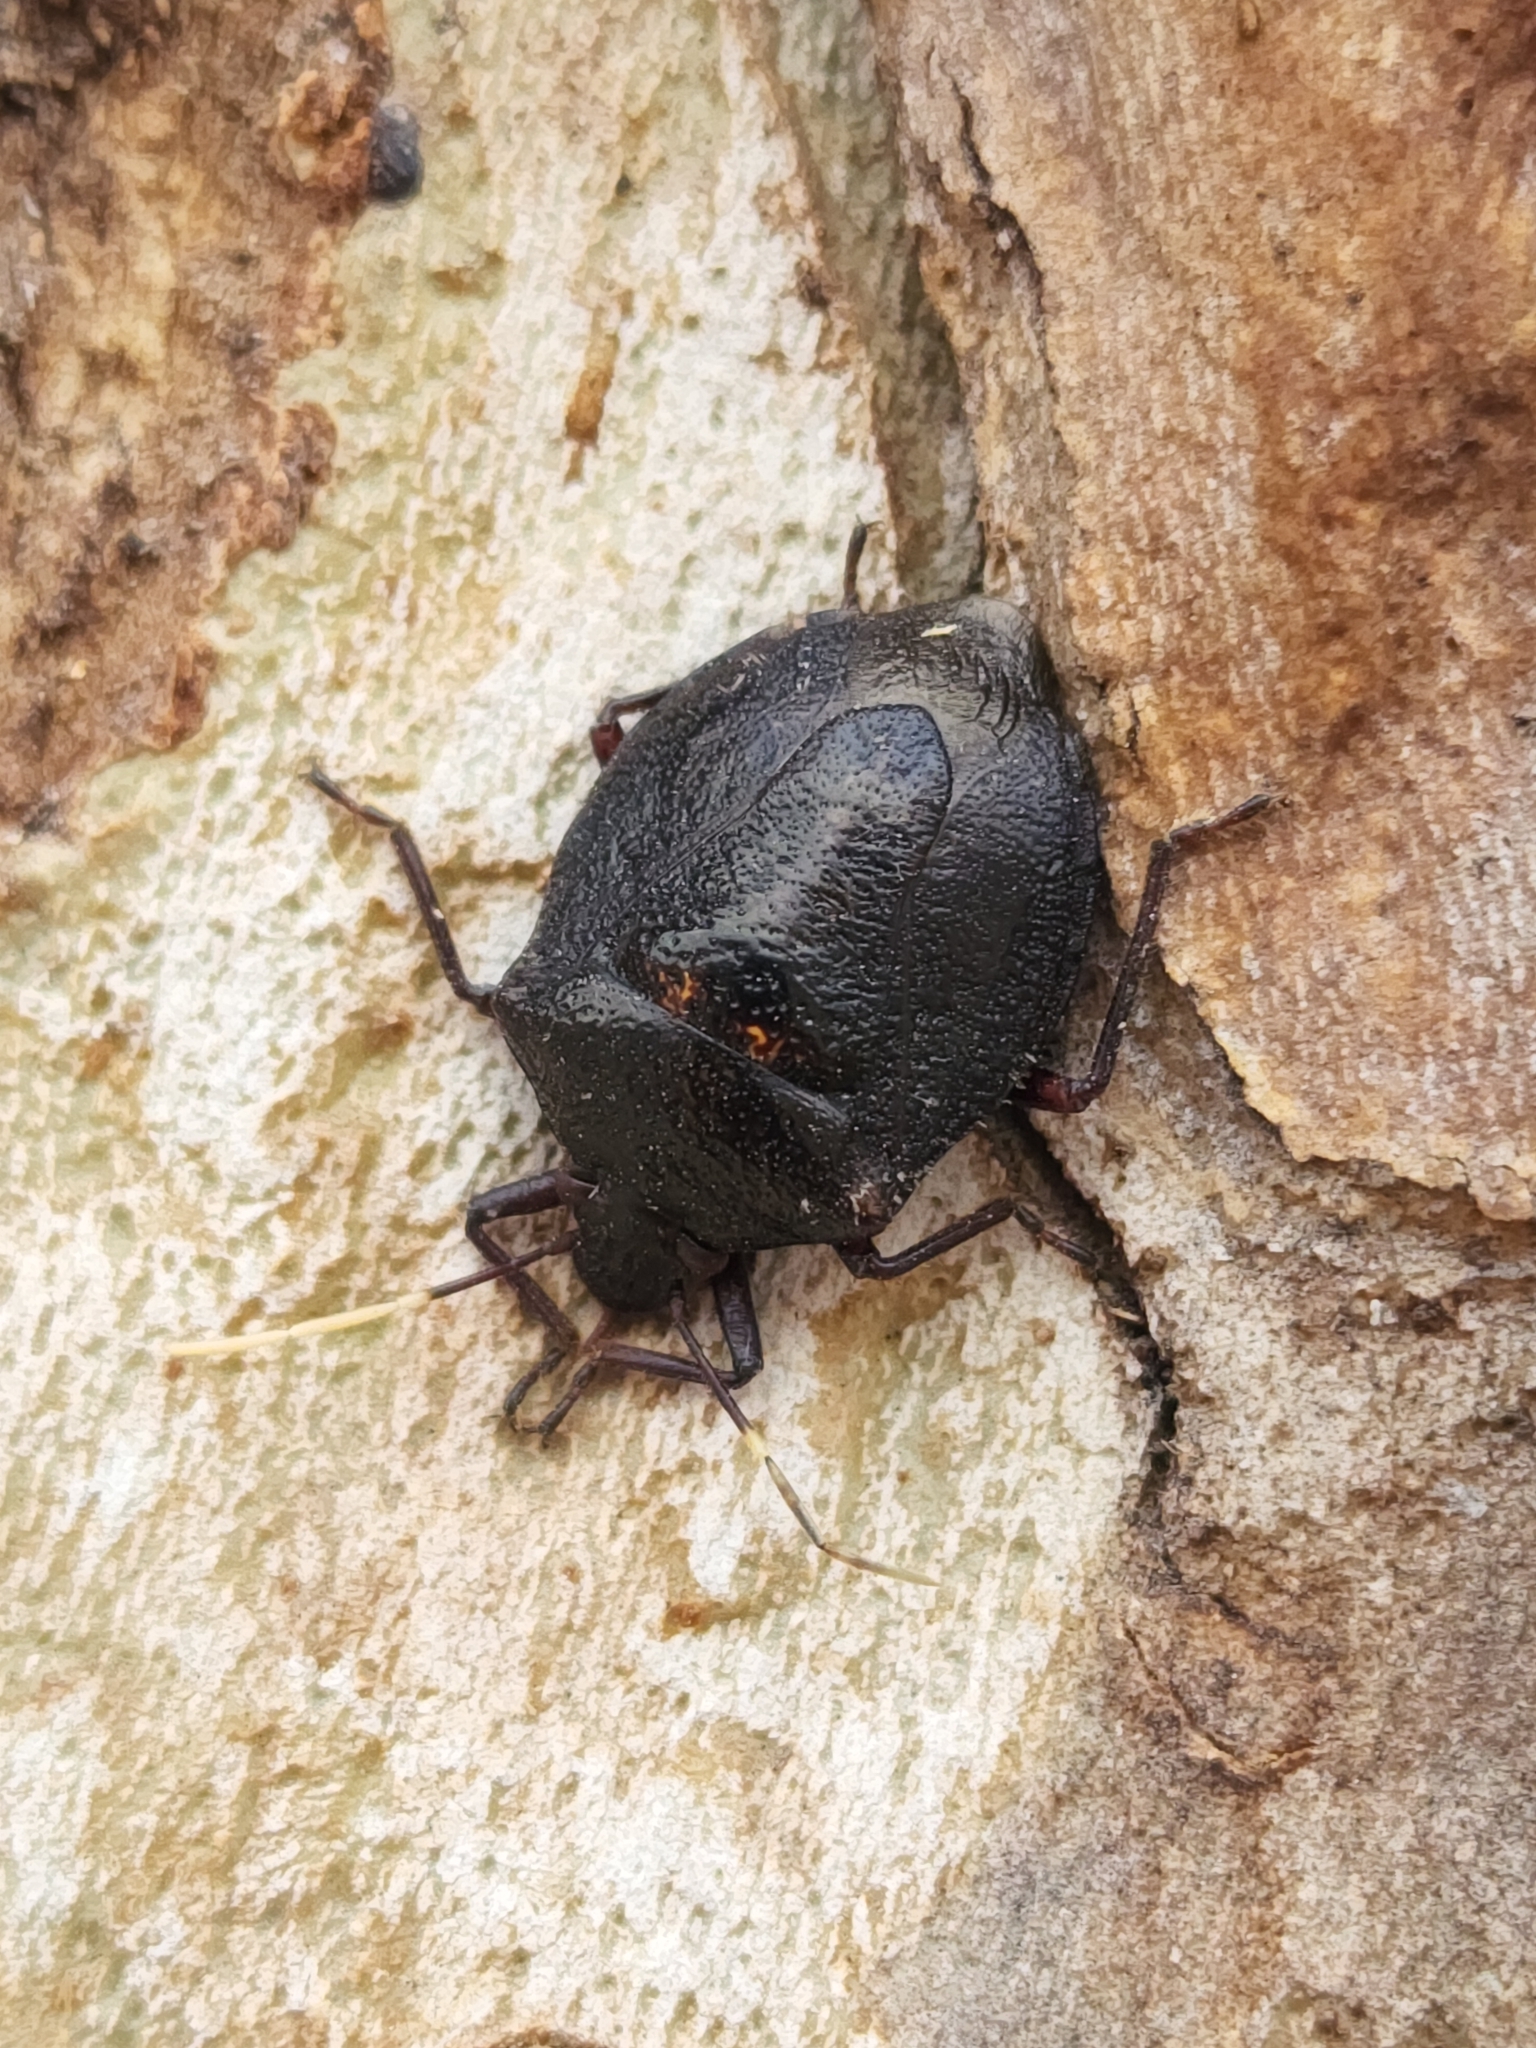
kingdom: Animalia
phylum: Arthropoda
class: Insecta
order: Hemiptera
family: Pentatomidae
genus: Antiteuchus
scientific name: Antiteuchus mixtus
